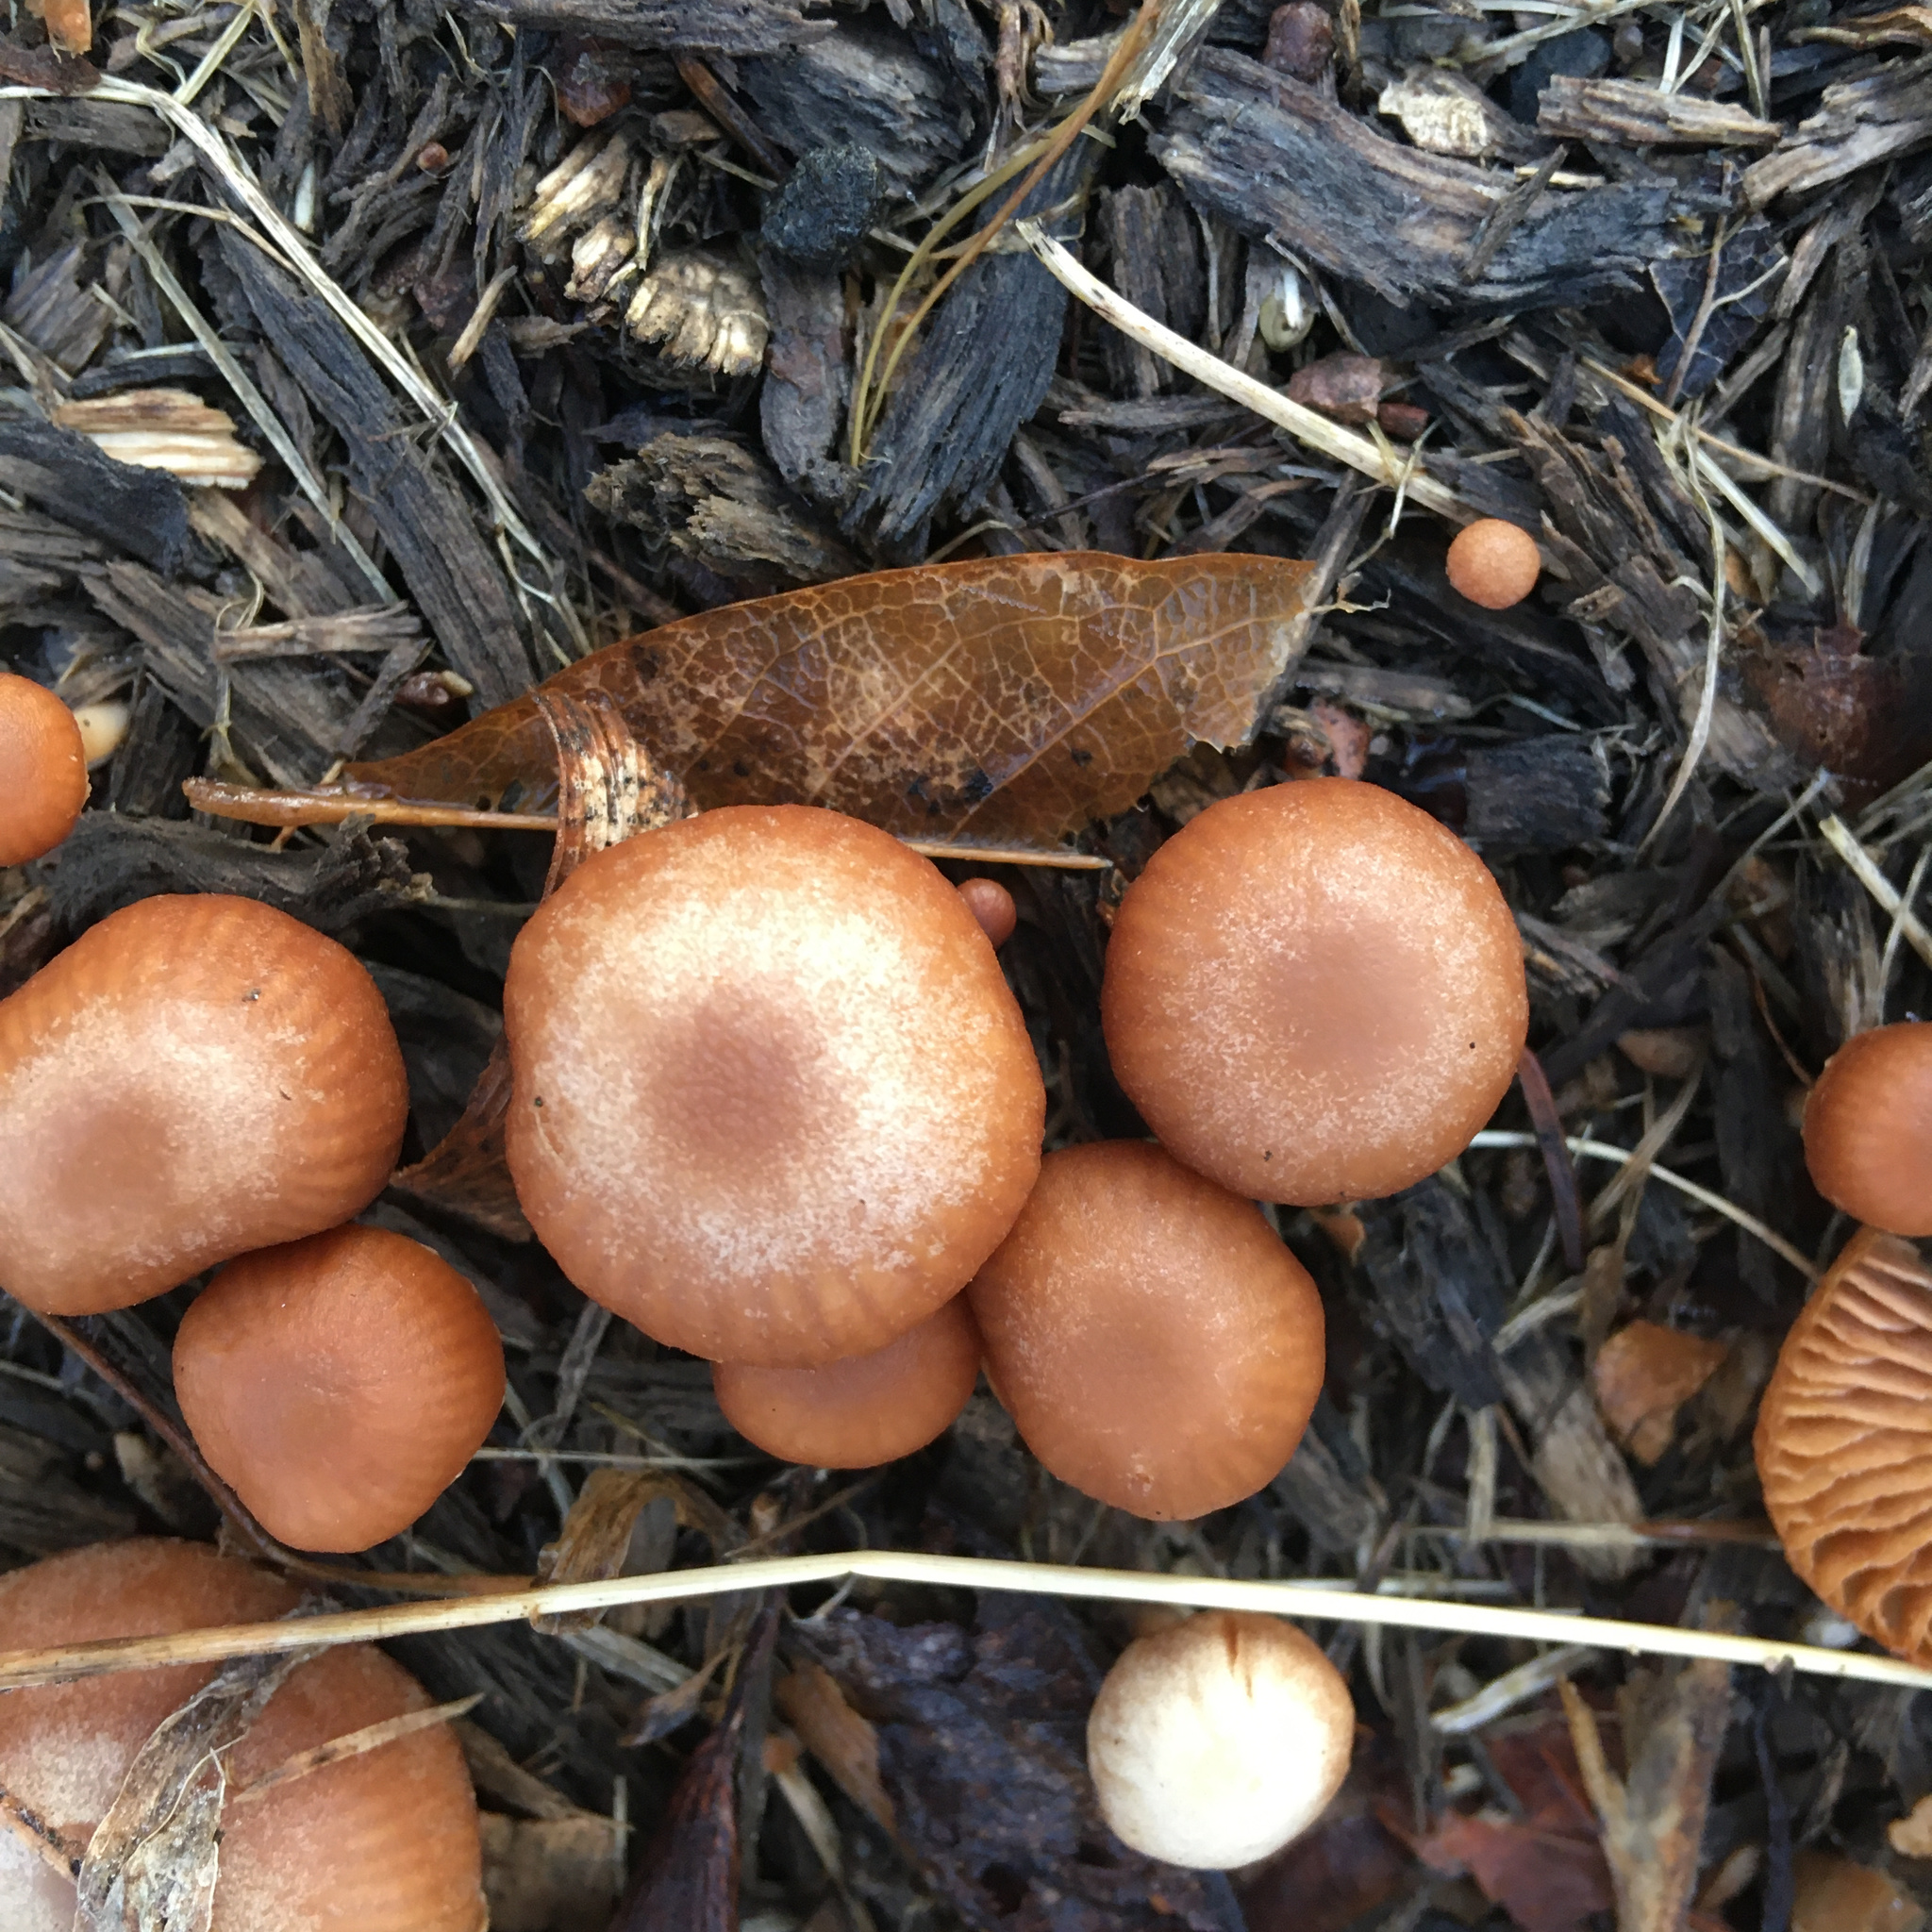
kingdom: Fungi
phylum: Basidiomycota
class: Agaricomycetes
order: Agaricales
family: Tubariaceae
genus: Tubaria
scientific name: Tubaria furfuracea
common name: Scurfy twiglet
